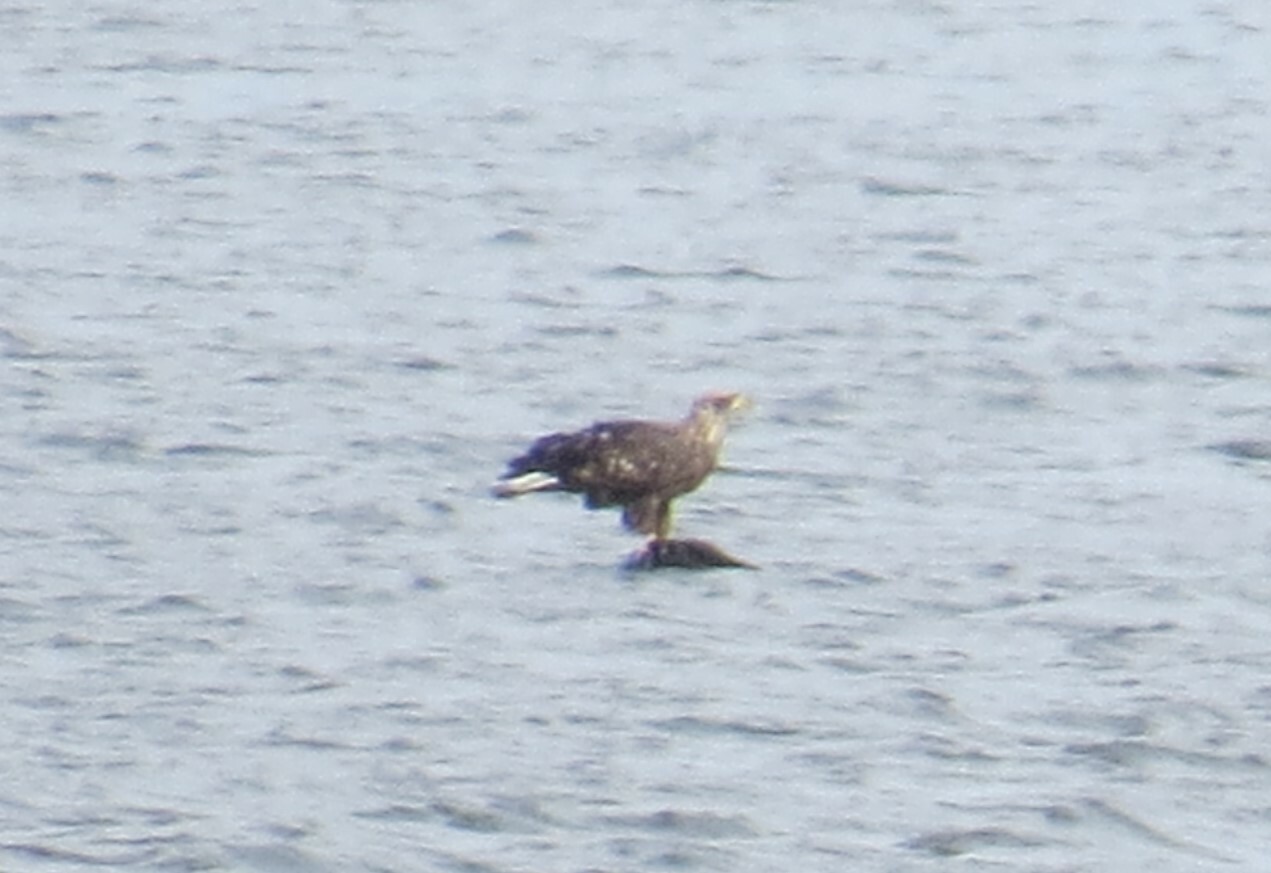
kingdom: Animalia
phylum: Chordata
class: Aves
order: Accipitriformes
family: Accipitridae
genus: Haliaeetus
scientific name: Haliaeetus leucocephalus
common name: Bald eagle
